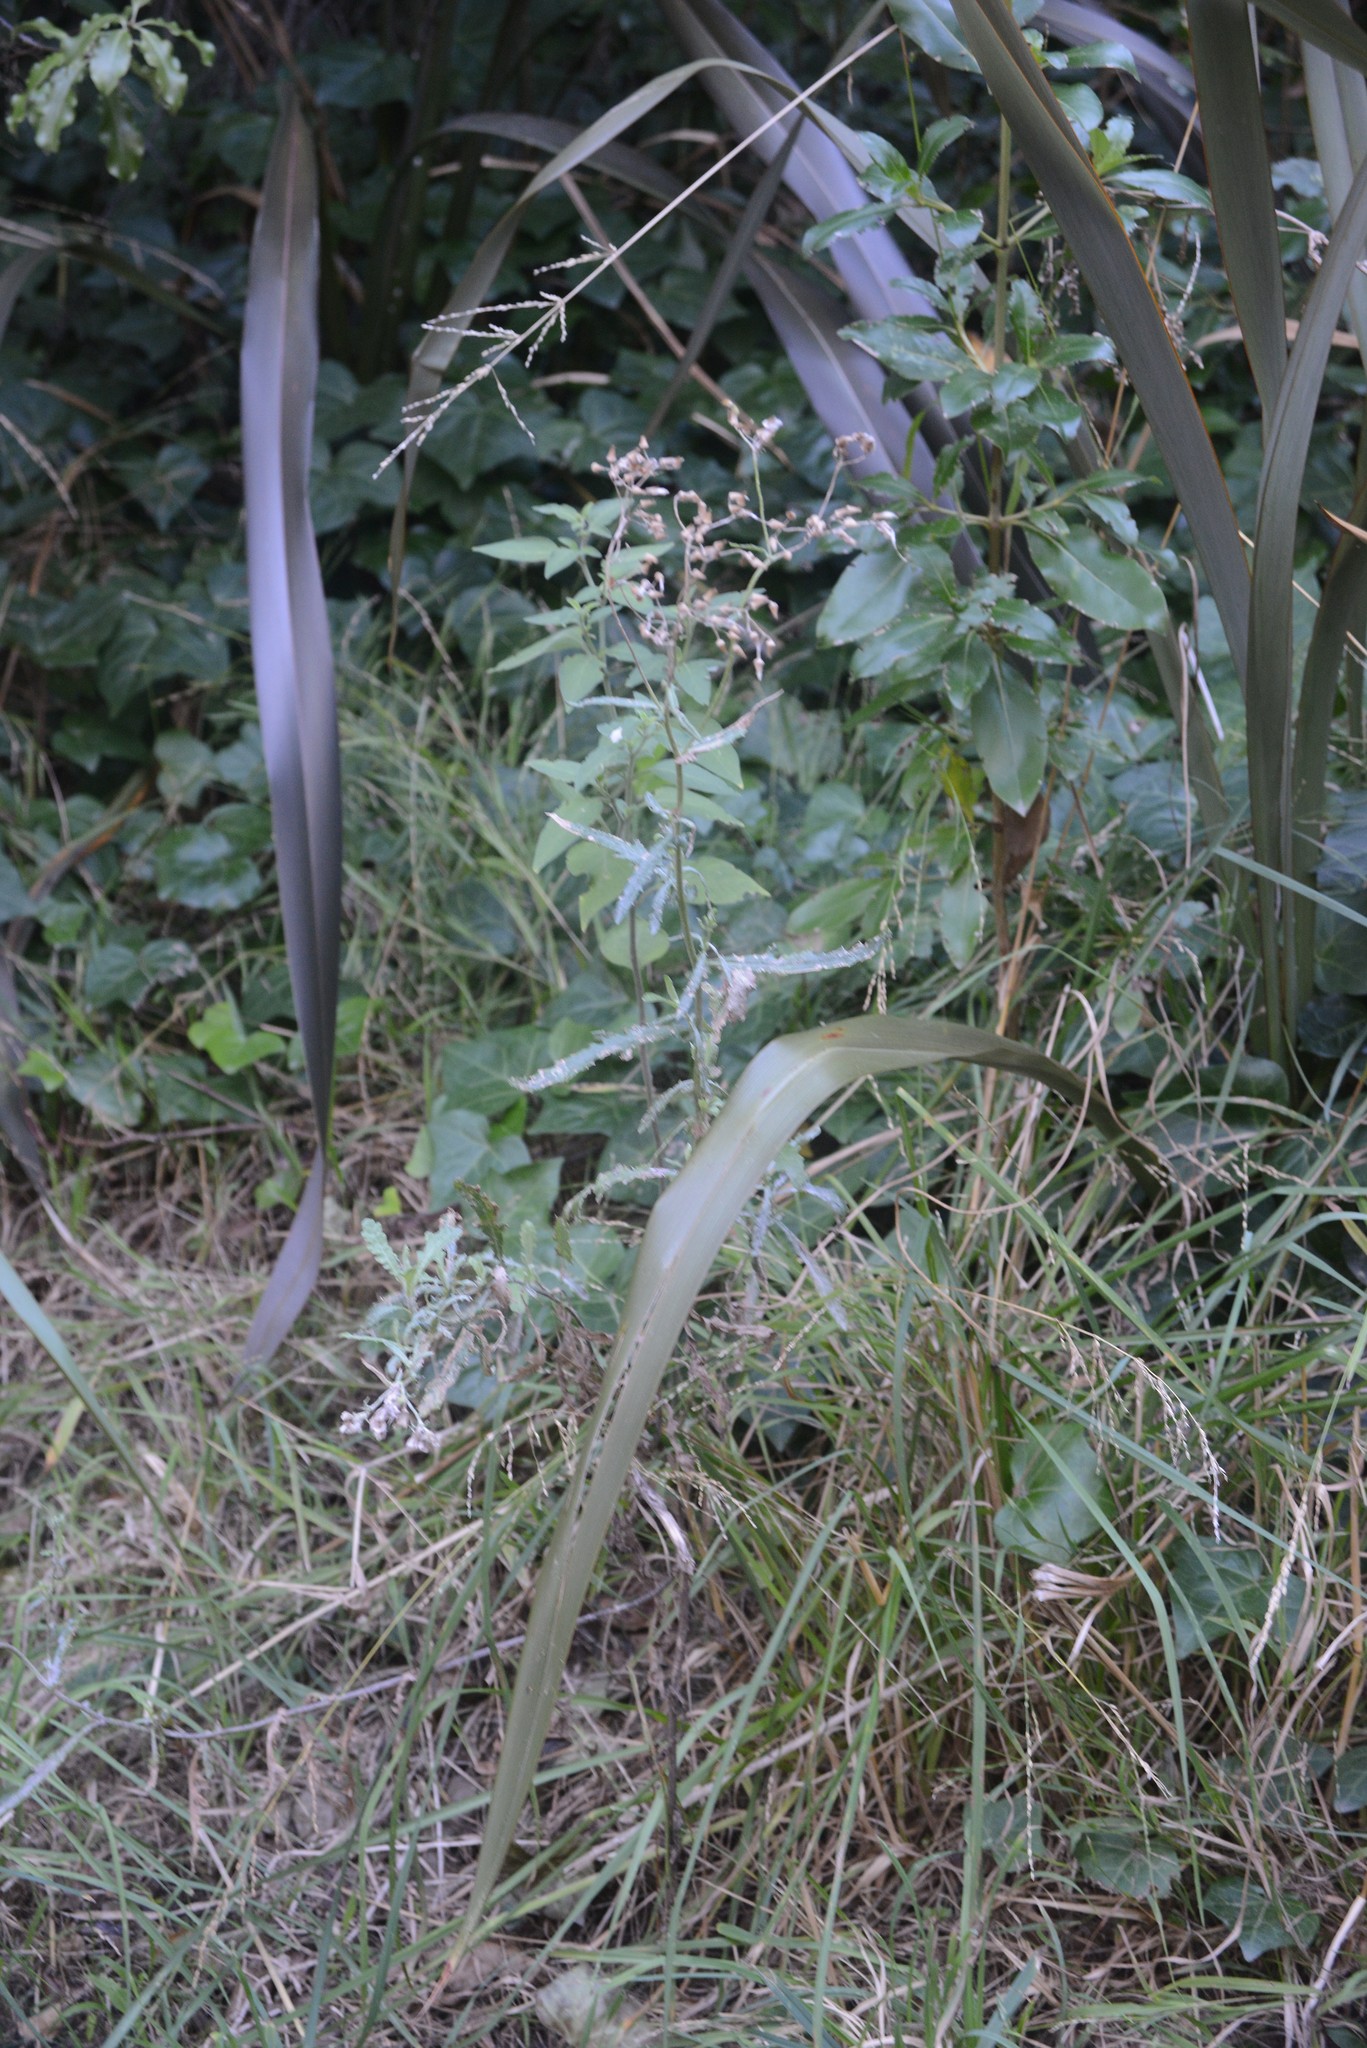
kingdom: Plantae
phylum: Tracheophyta
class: Magnoliopsida
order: Asterales
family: Asteraceae
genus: Senecio
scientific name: Senecio glomeratus
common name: Cutleaf burnweed
